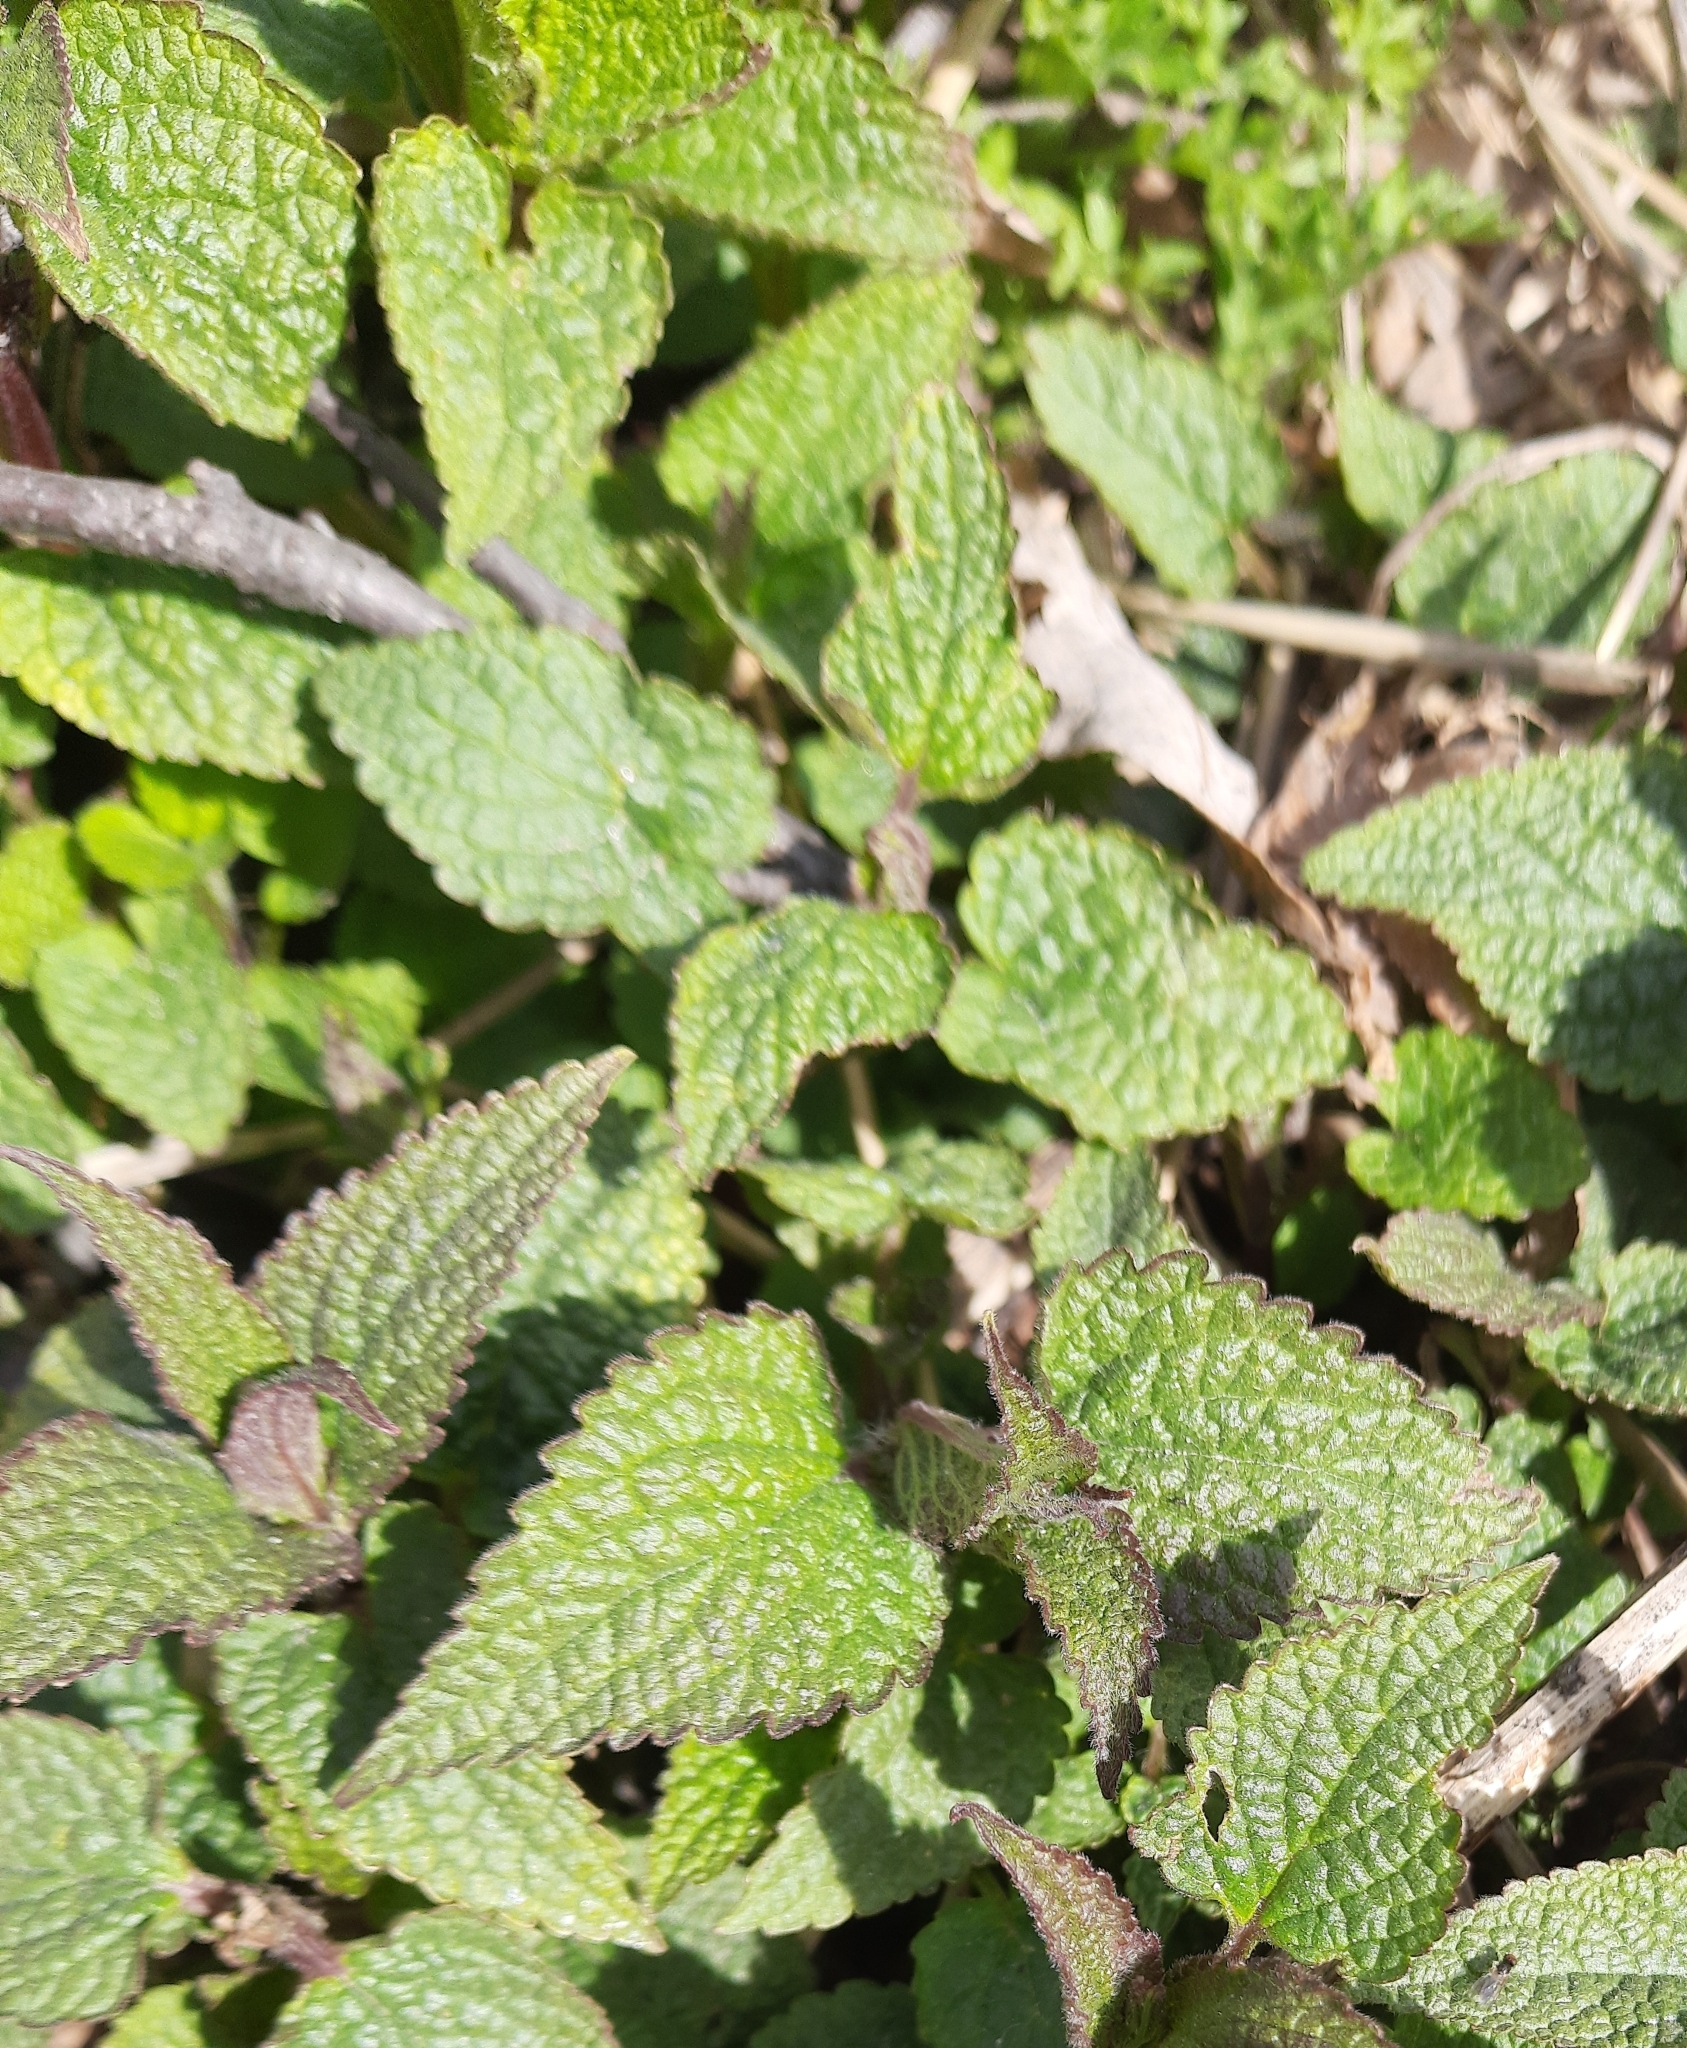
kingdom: Plantae
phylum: Tracheophyta
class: Magnoliopsida
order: Lamiales
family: Lamiaceae
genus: Lamium
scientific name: Lamium album
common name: White dead-nettle
